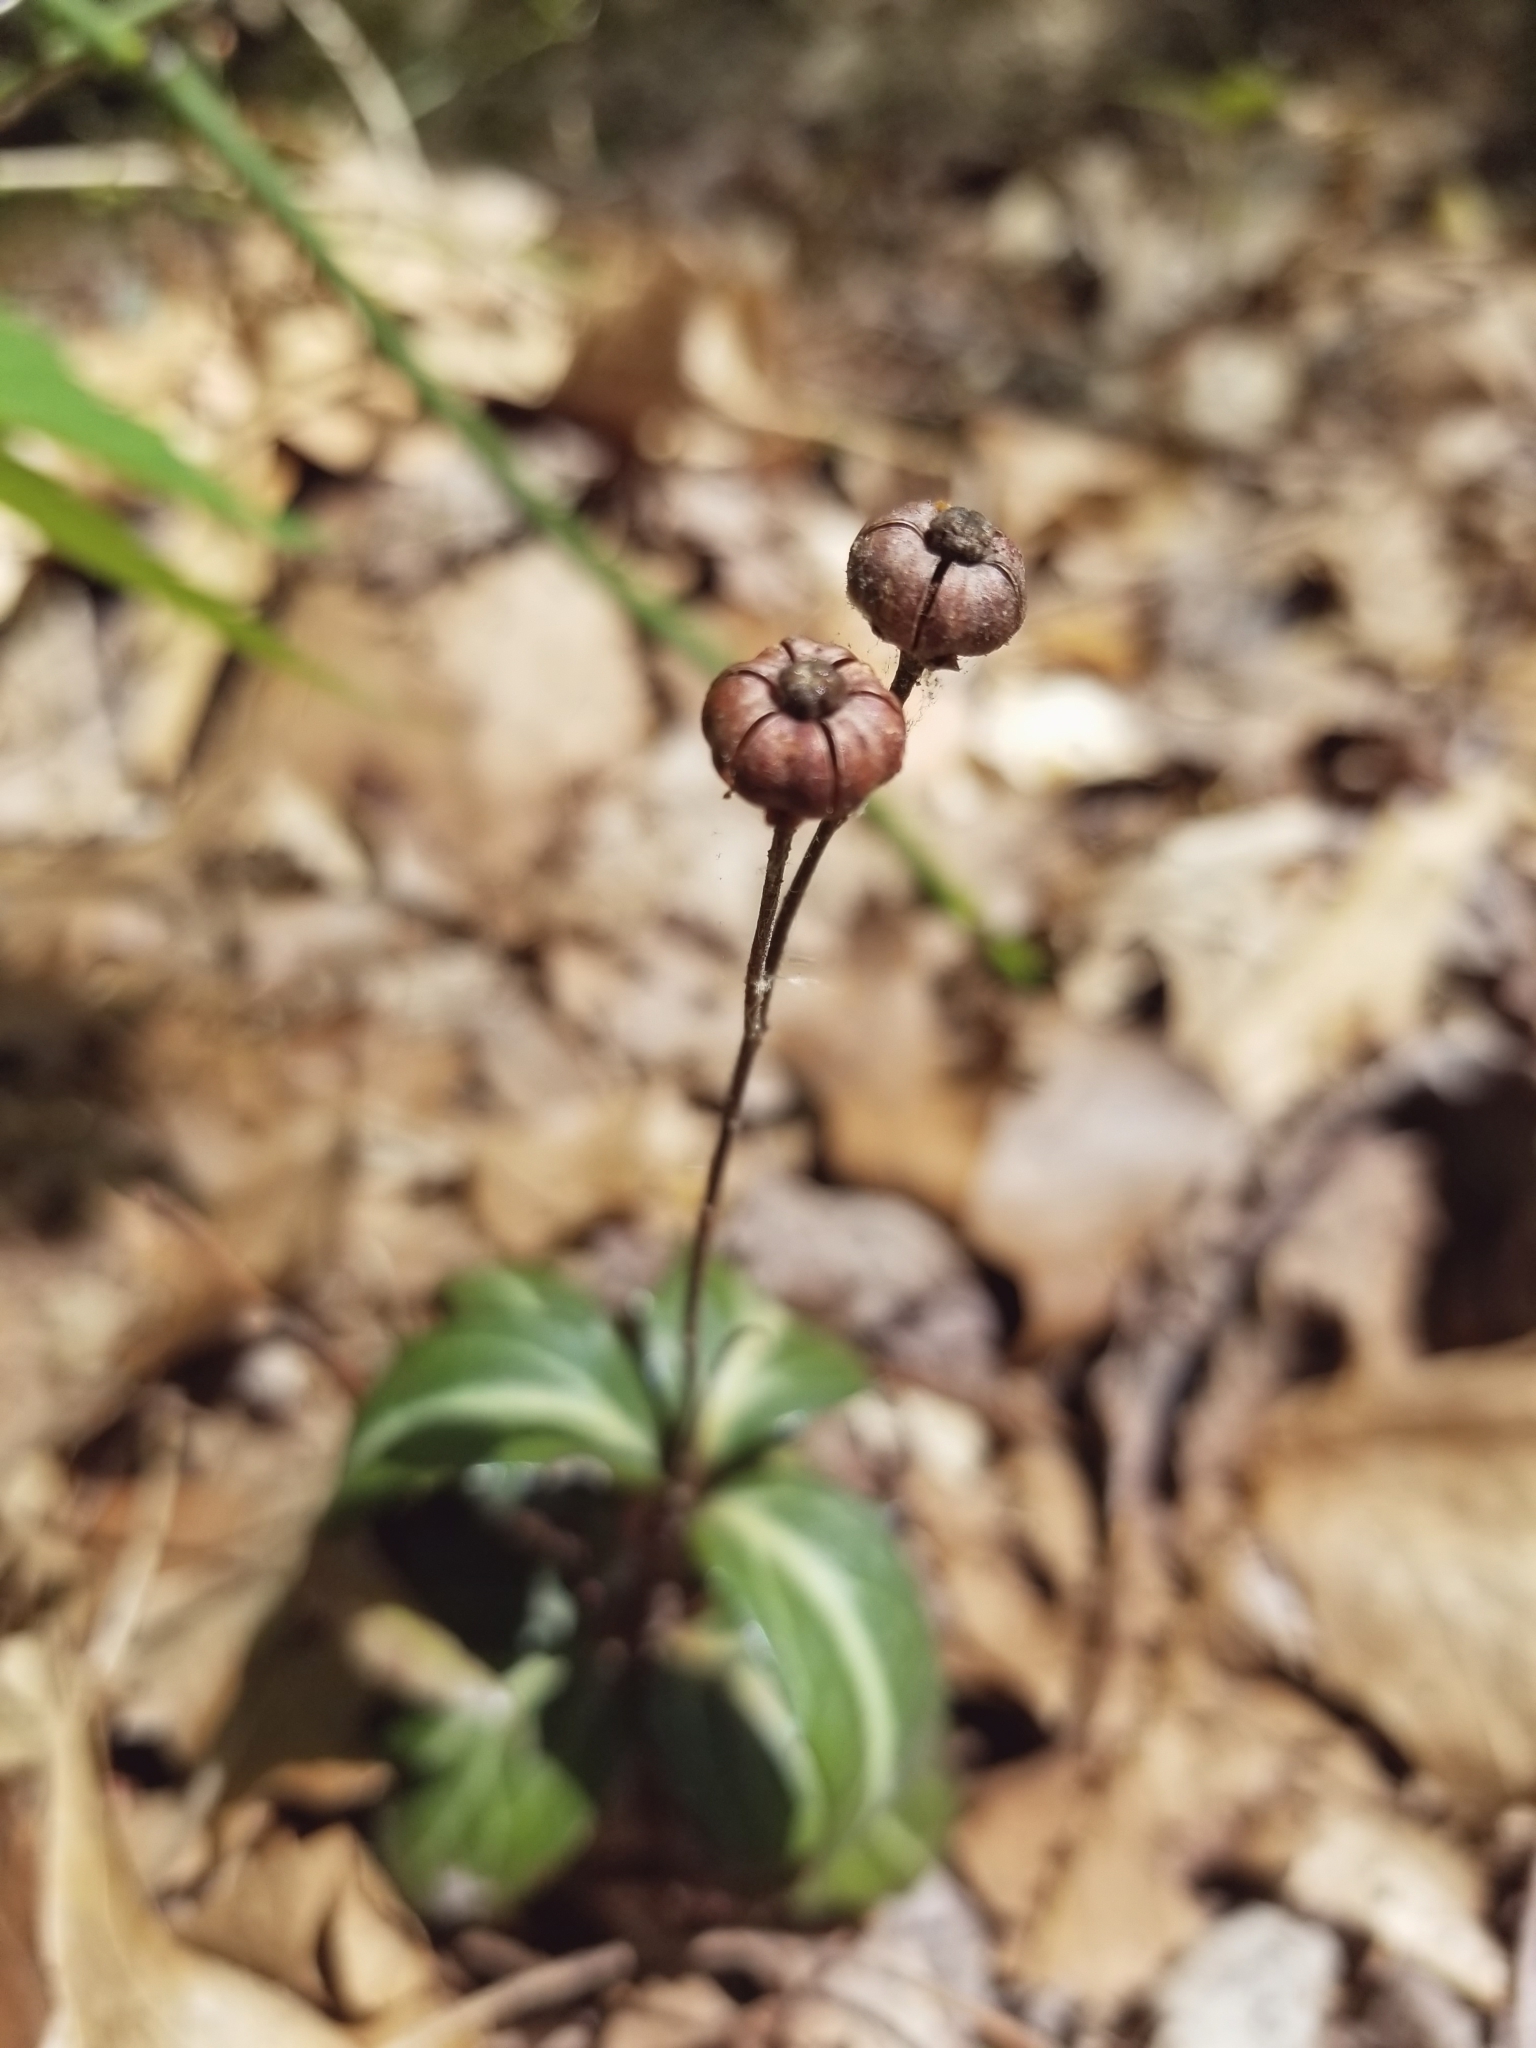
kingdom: Plantae
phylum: Tracheophyta
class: Magnoliopsida
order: Ericales
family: Ericaceae
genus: Chimaphila
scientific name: Chimaphila maculata
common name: Spotted pipsissewa
